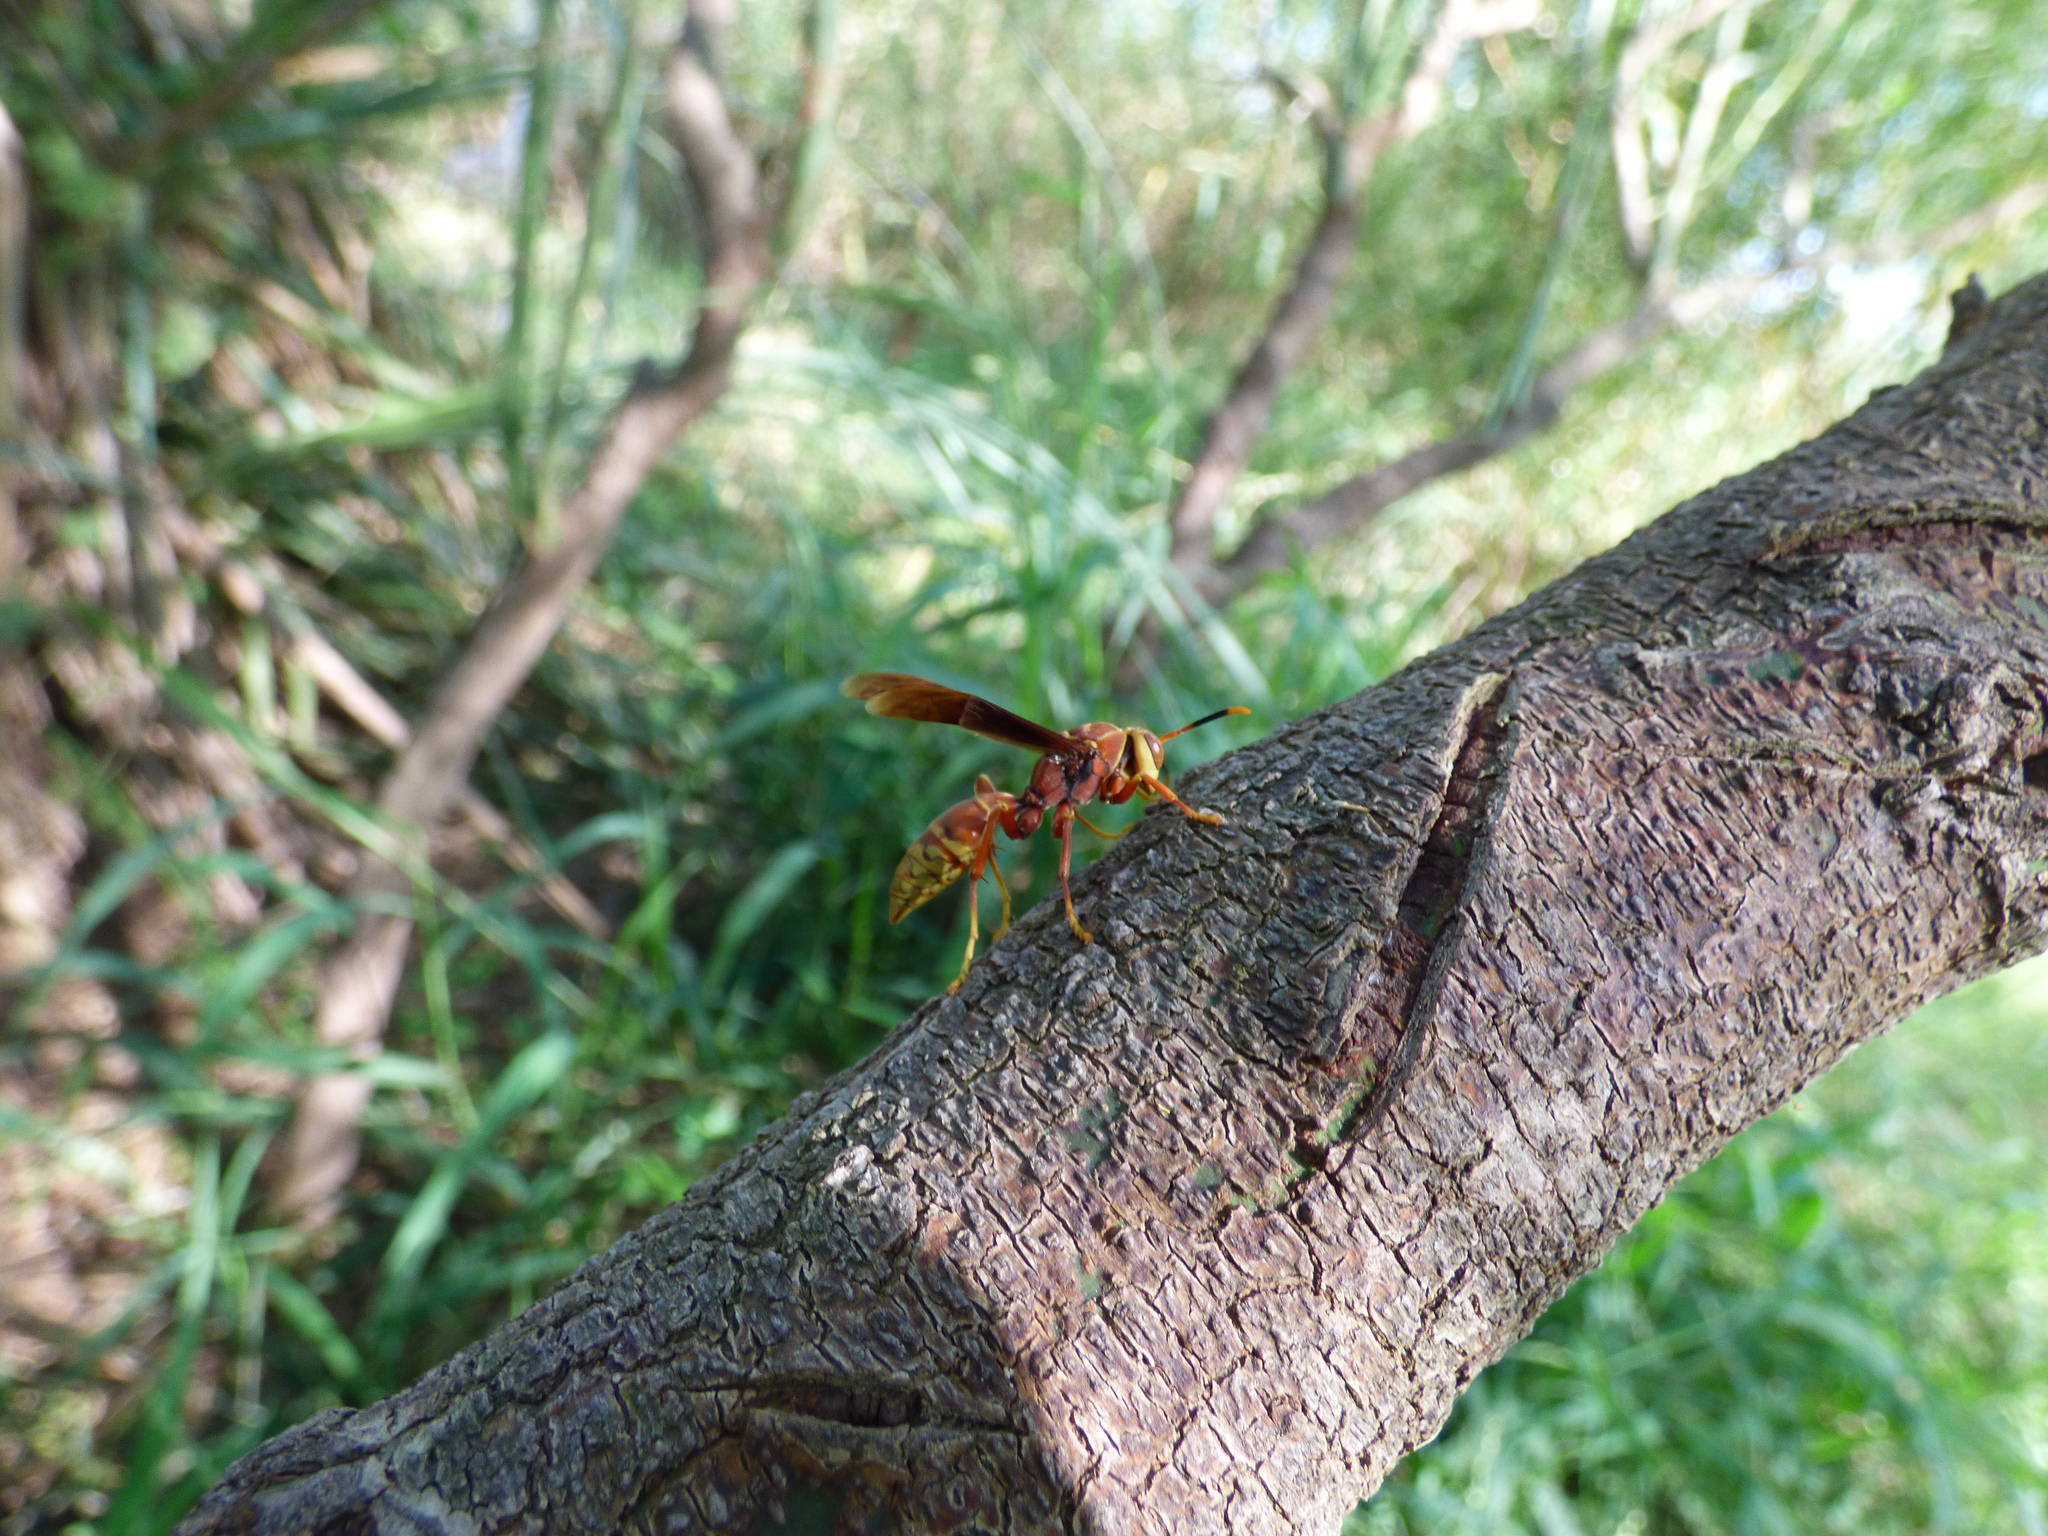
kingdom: Animalia
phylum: Arthropoda
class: Insecta
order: Hymenoptera
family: Eumenidae
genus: Polistes
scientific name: Polistes cavapyta
